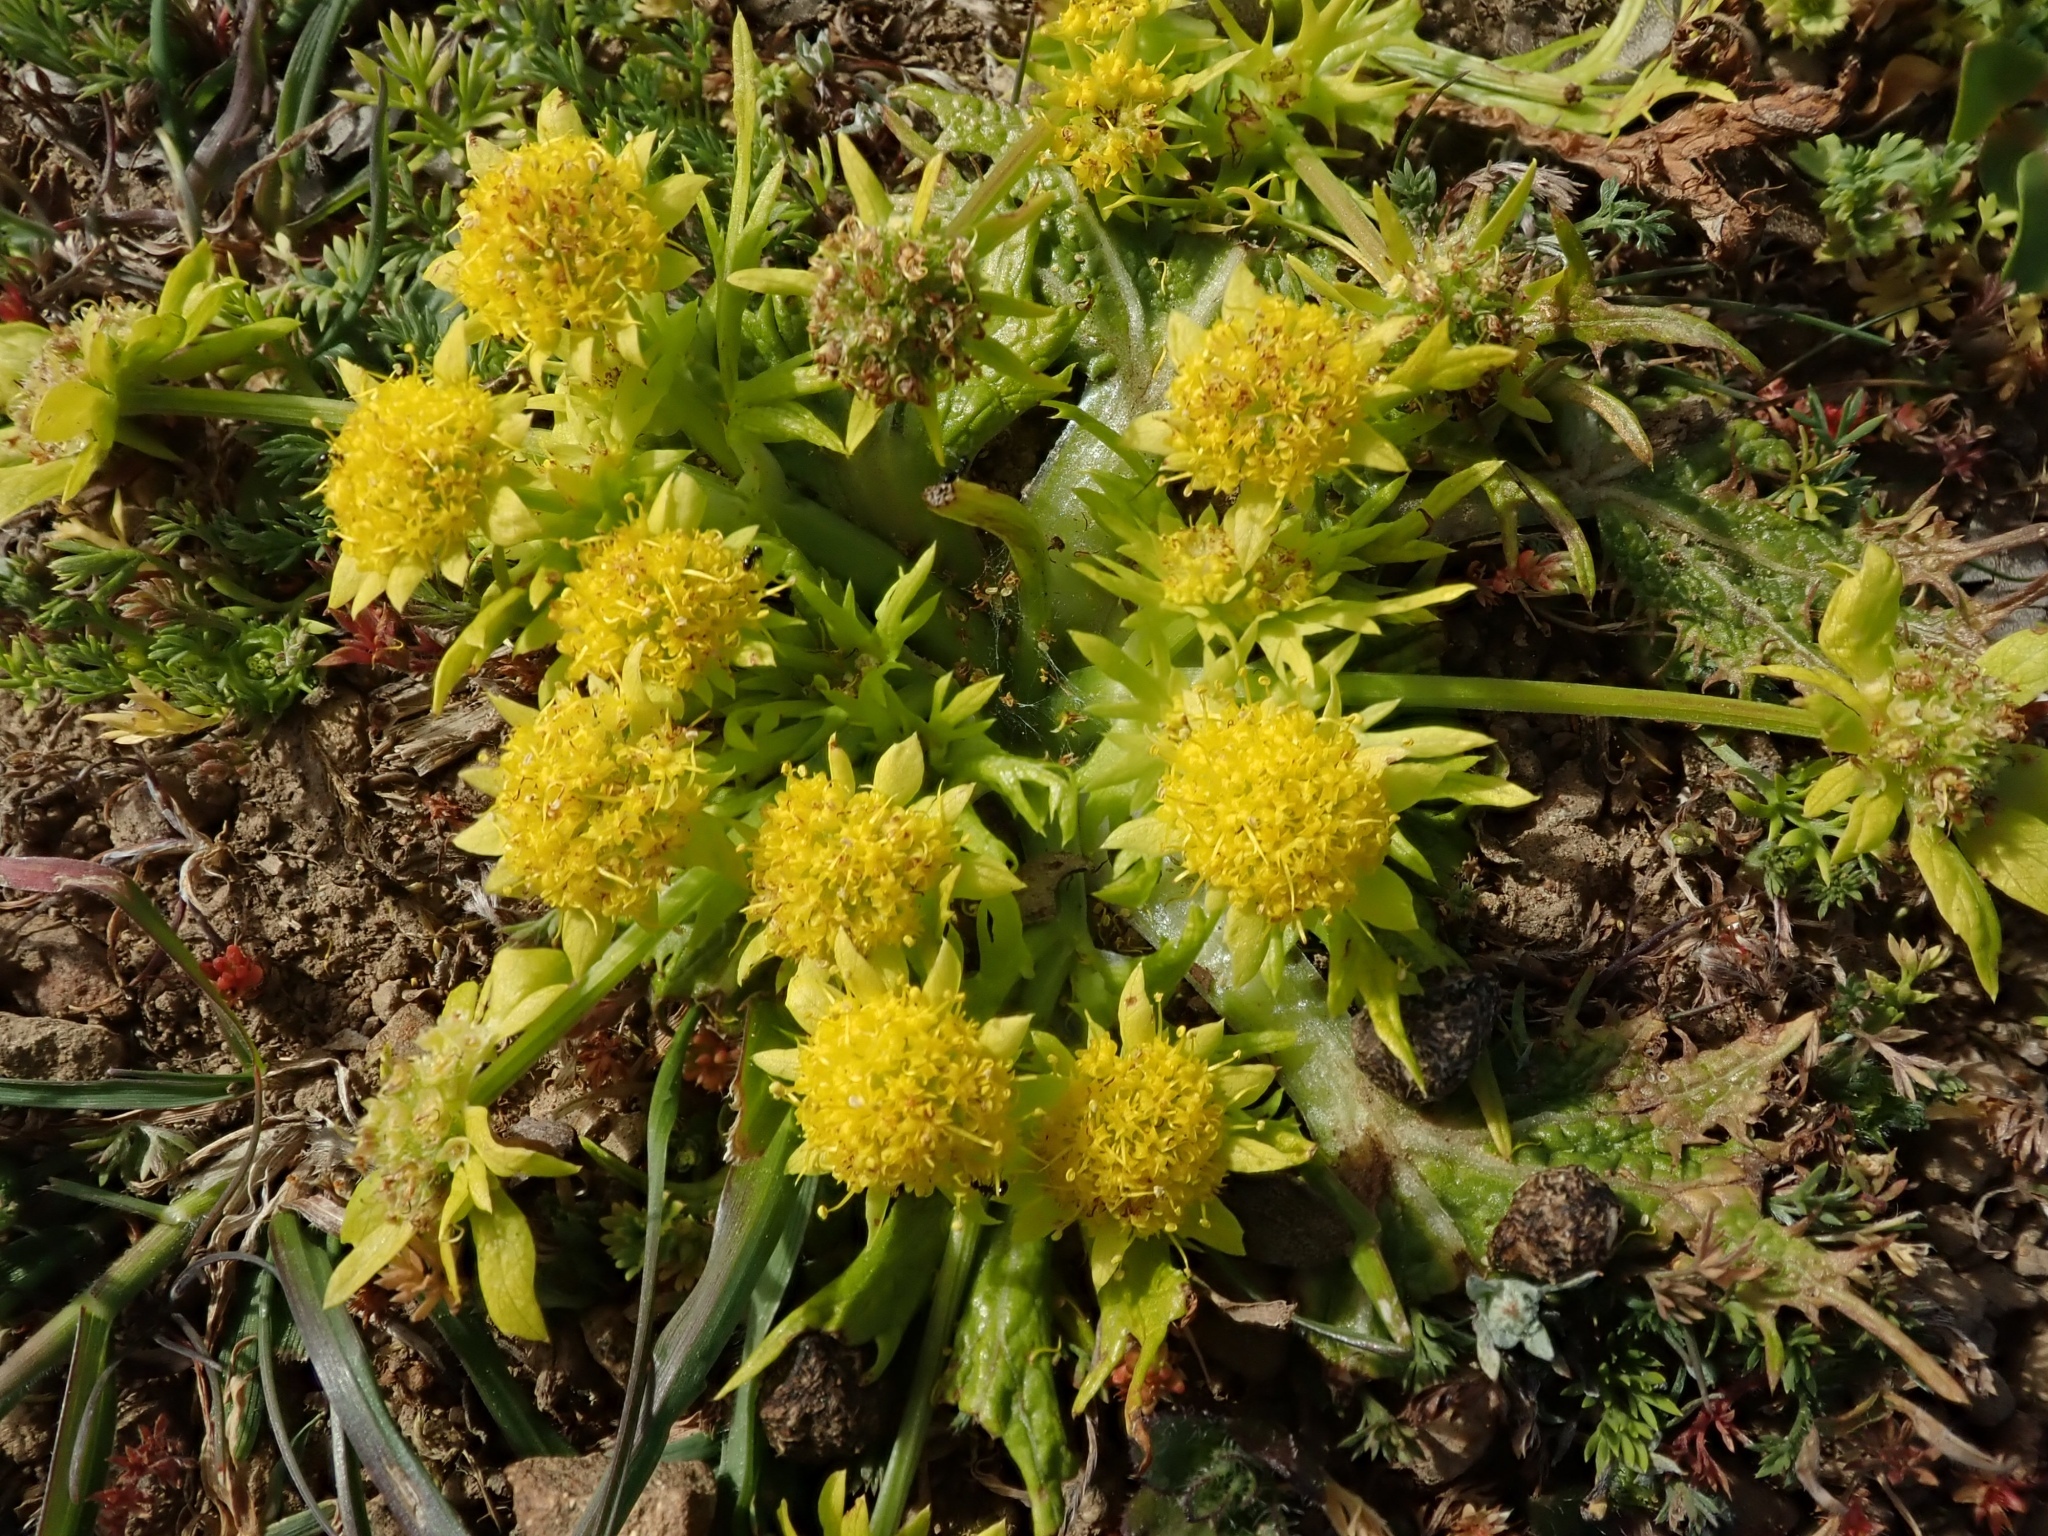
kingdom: Plantae
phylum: Tracheophyta
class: Magnoliopsida
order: Apiales
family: Apiaceae
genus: Sanicula
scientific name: Sanicula arctopoides
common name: Footsteps-of-spring
